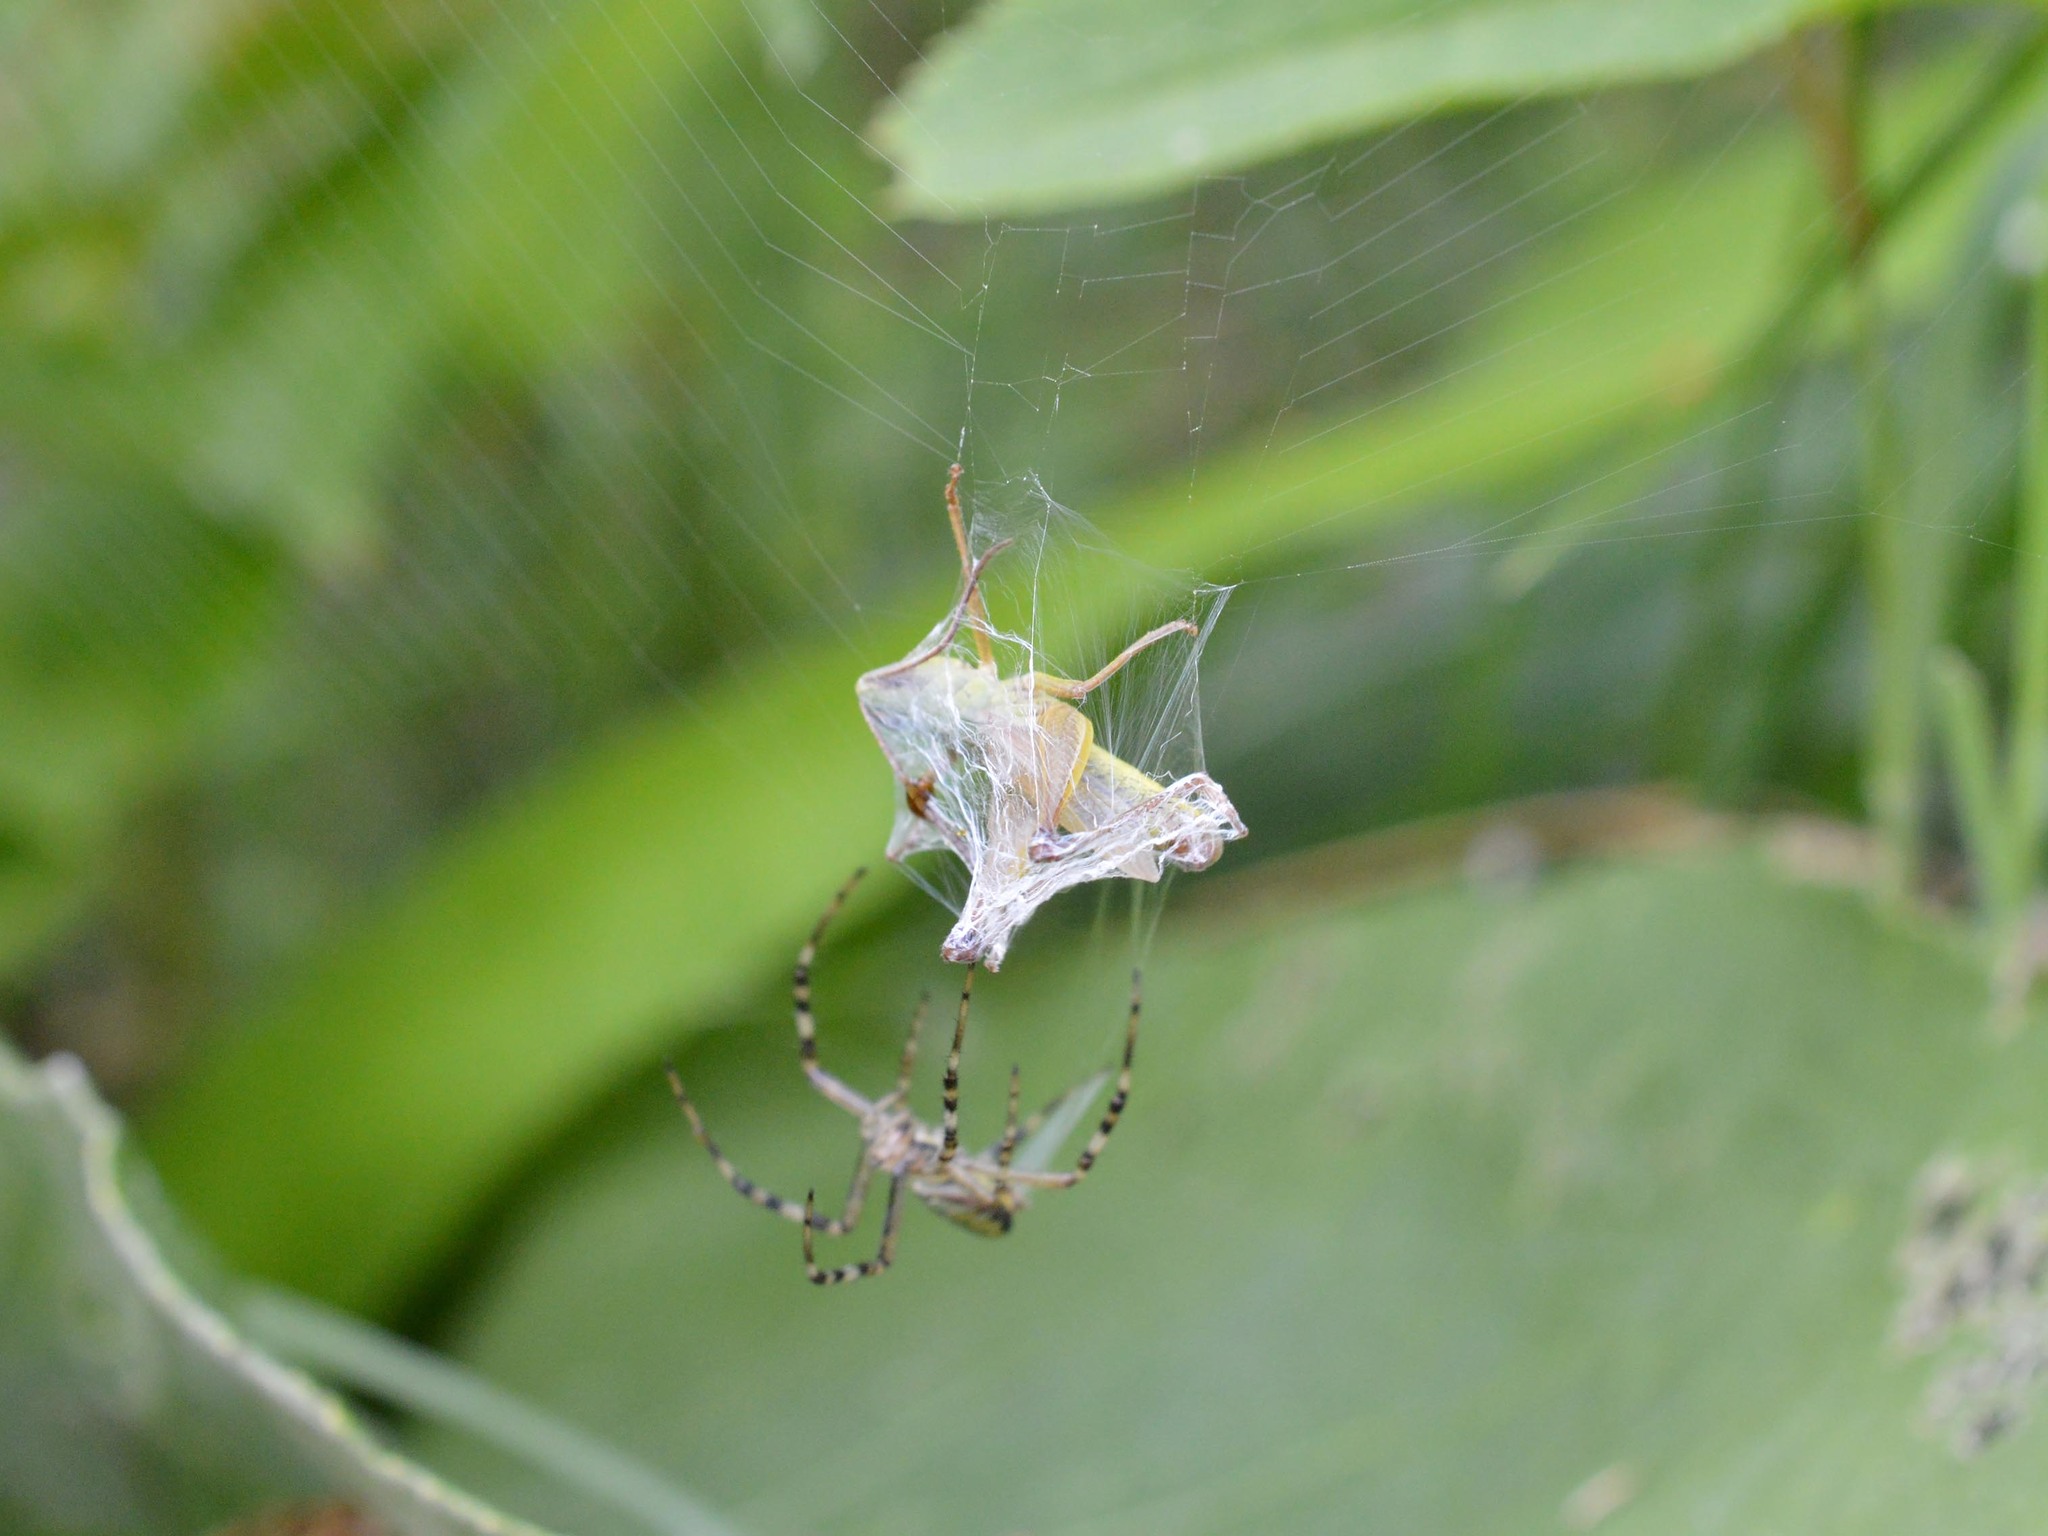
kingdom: Animalia
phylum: Arthropoda
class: Arachnida
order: Araneae
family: Araneidae
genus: Argiope
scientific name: Argiope bruennichi
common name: Wasp spider
